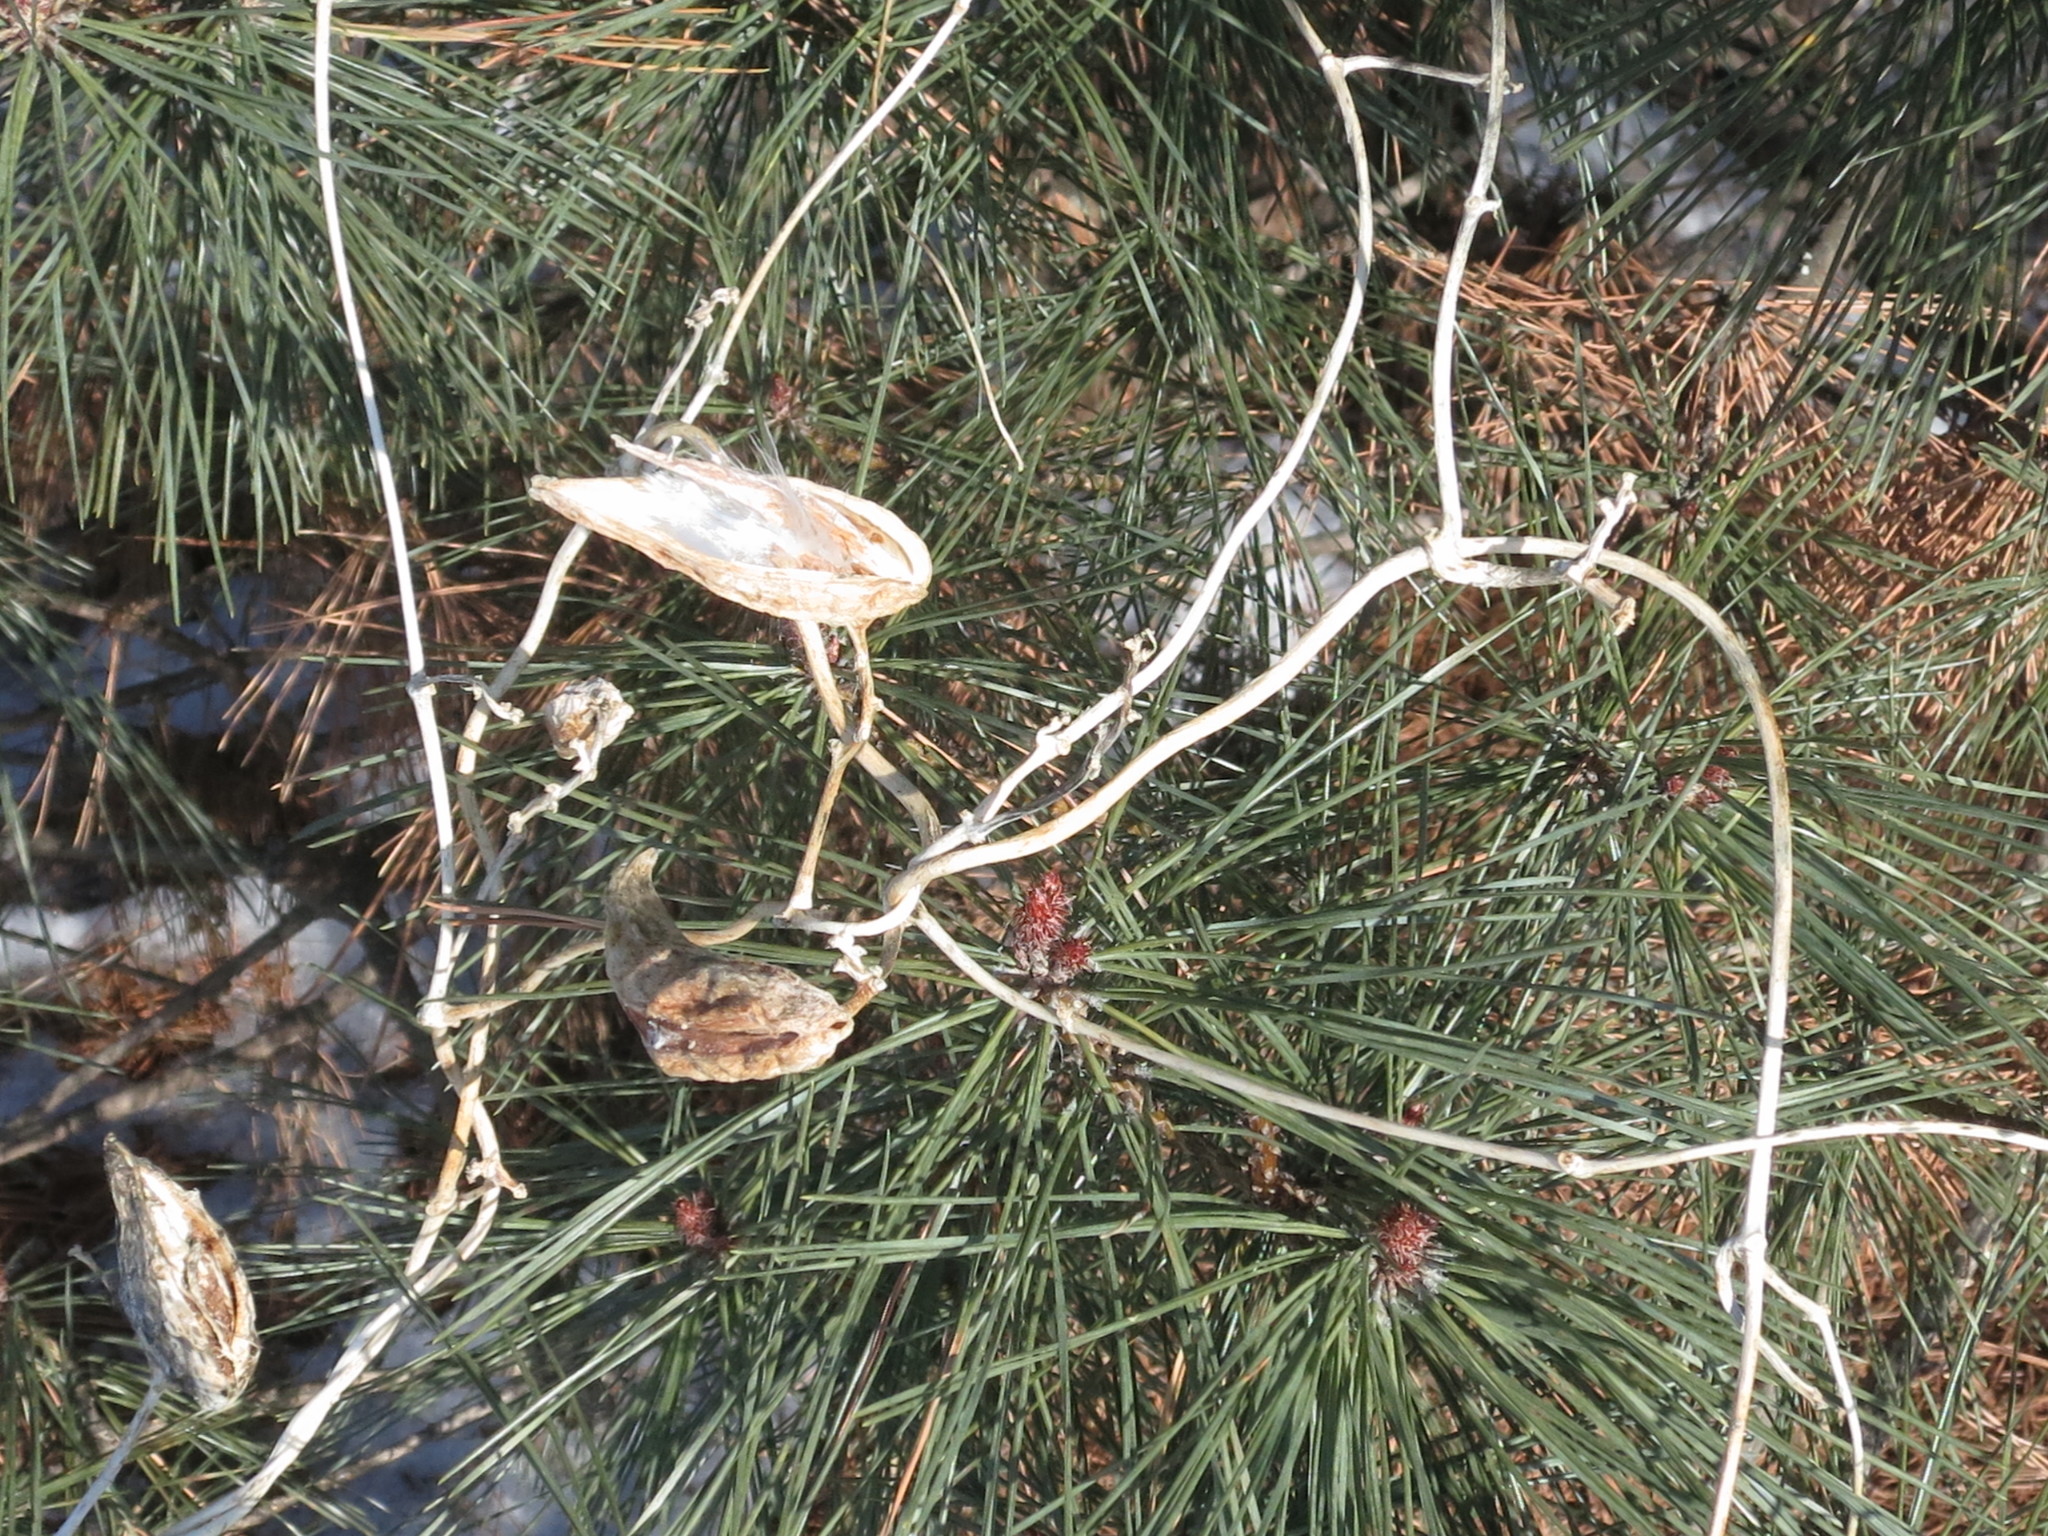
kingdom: Plantae
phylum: Tracheophyta
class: Magnoliopsida
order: Gentianales
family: Apocynaceae
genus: Cynanchum
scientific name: Cynanchum rostellatum
